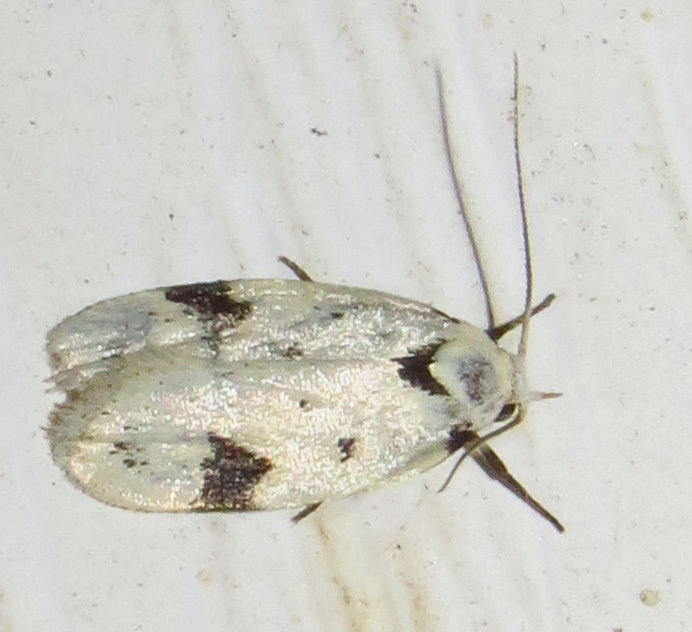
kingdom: Animalia
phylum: Arthropoda
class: Insecta
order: Lepidoptera
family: Oecophoridae
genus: Inga
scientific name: Inga sparsiciliella
